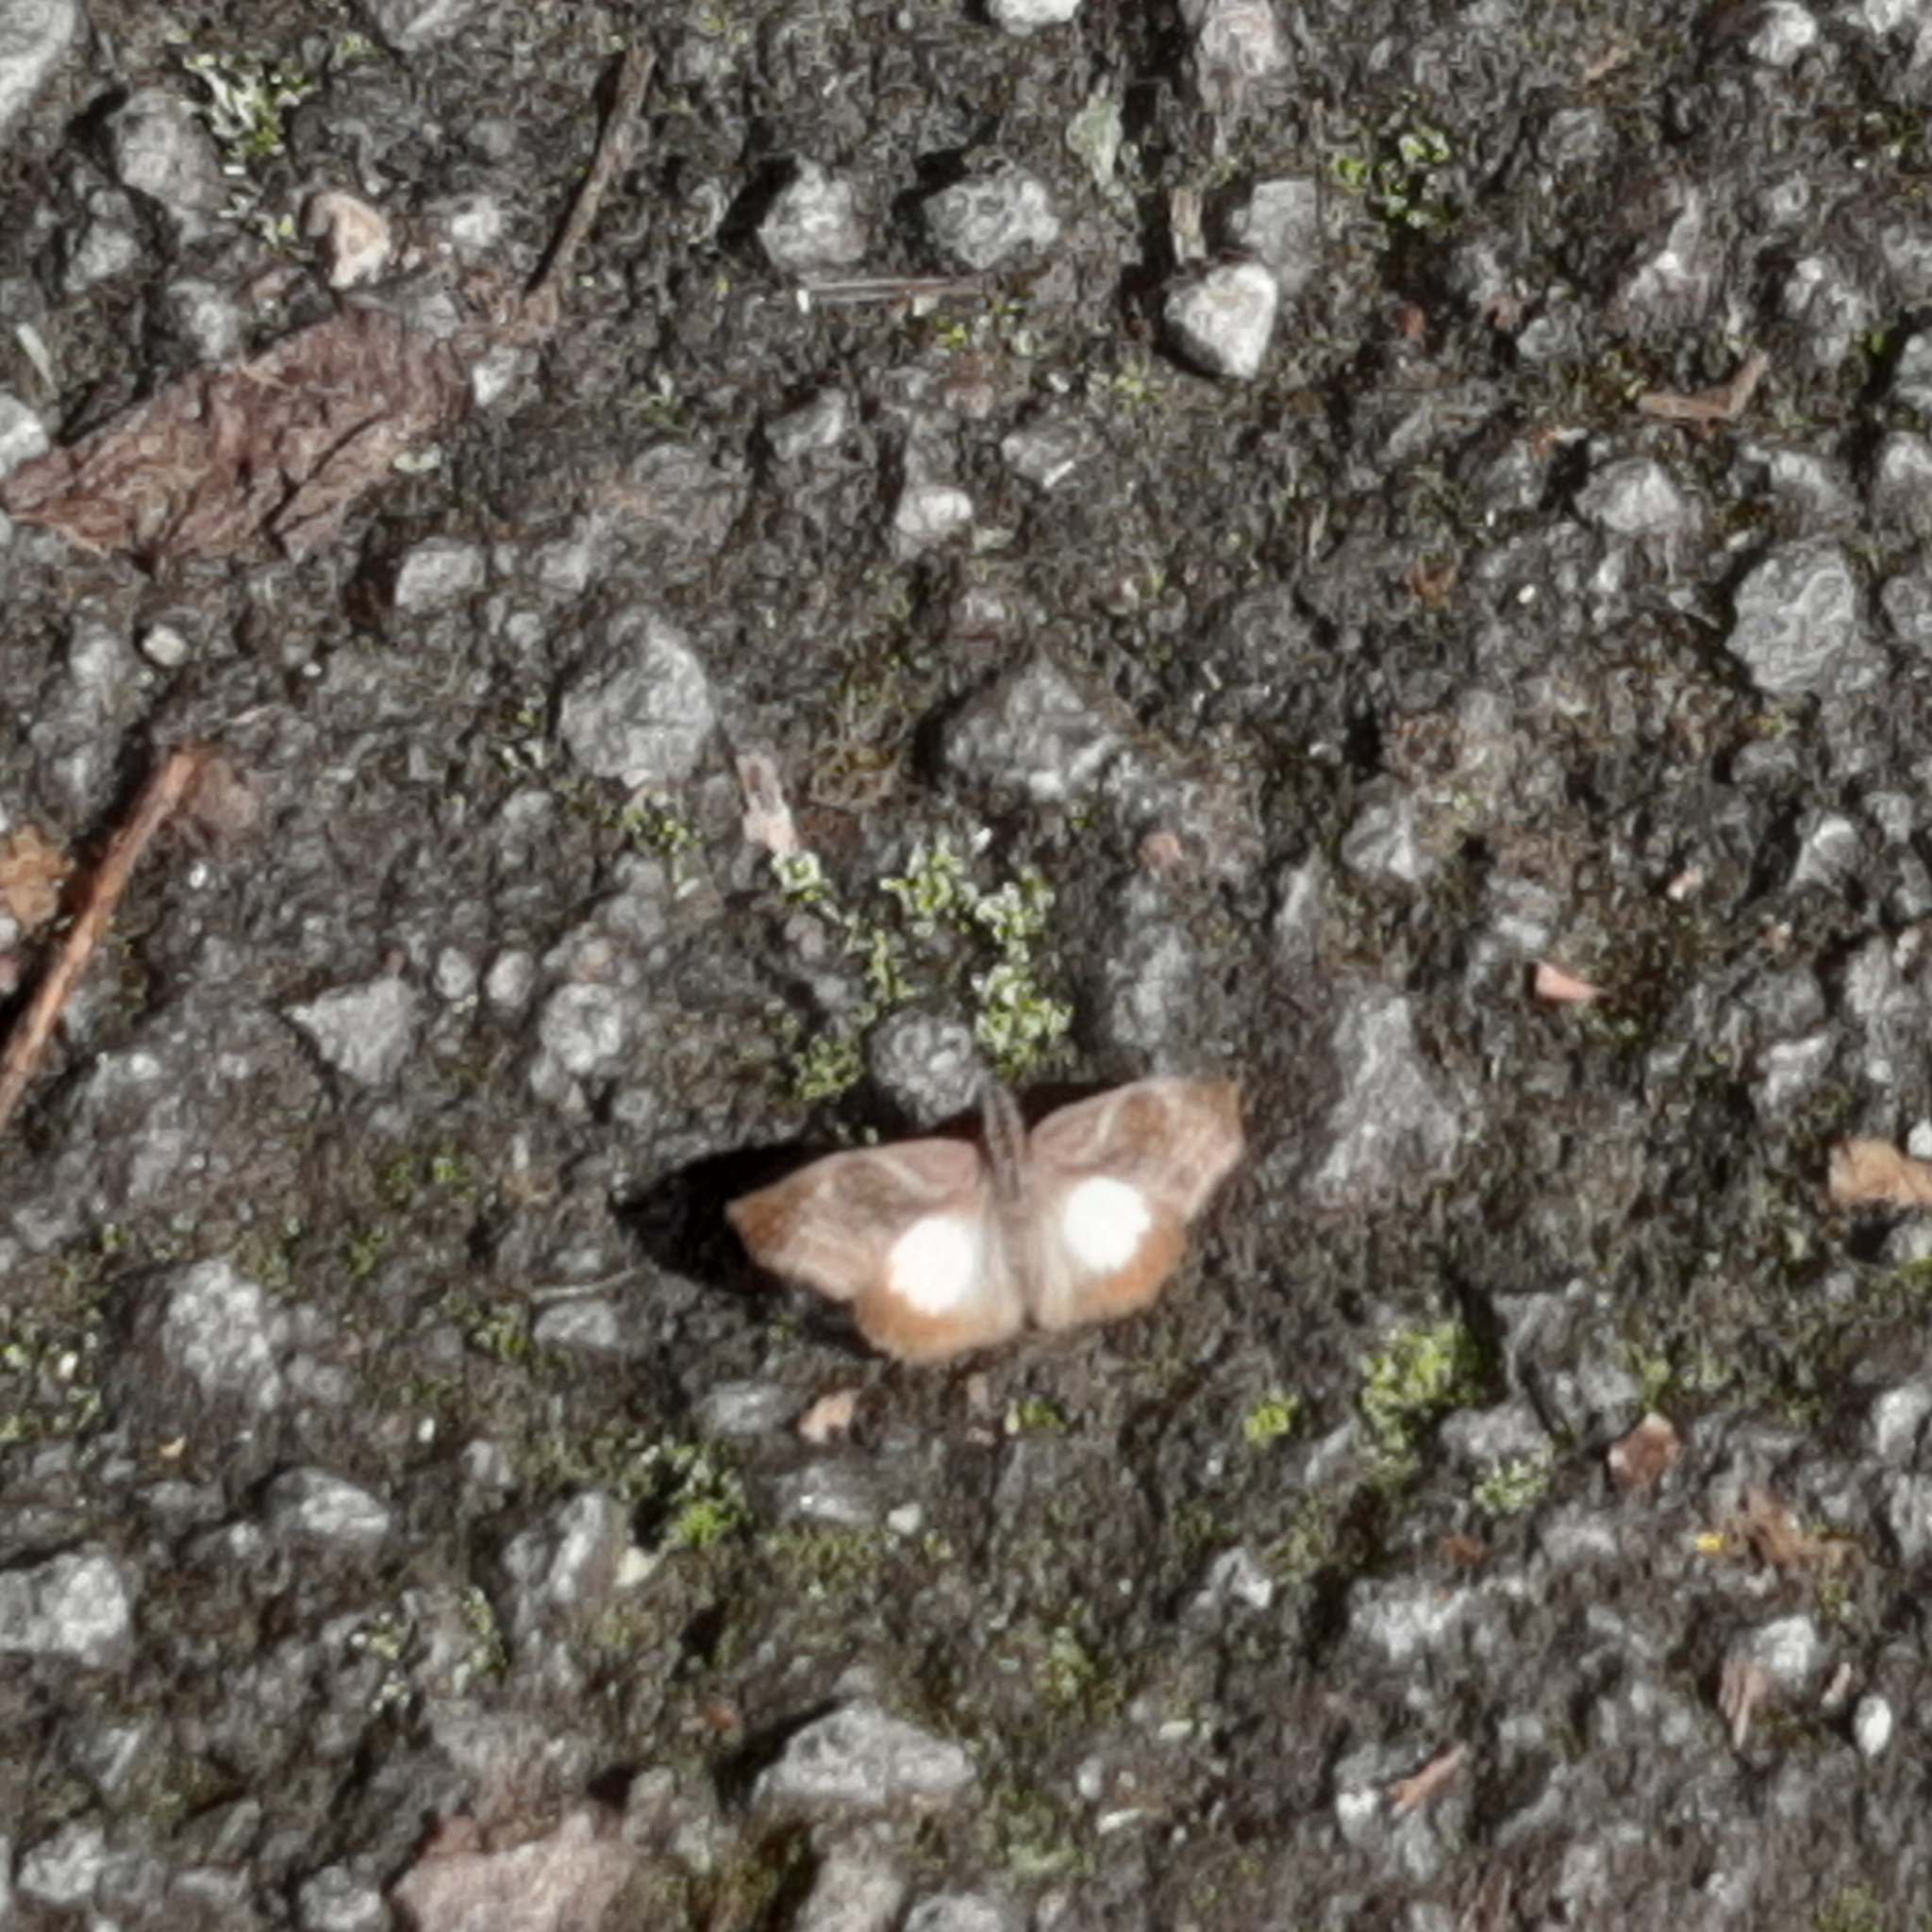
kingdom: Animalia
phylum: Arthropoda
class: Insecta
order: Lepidoptera
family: Hesperiidae
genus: Theagenes
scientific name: Theagenes
